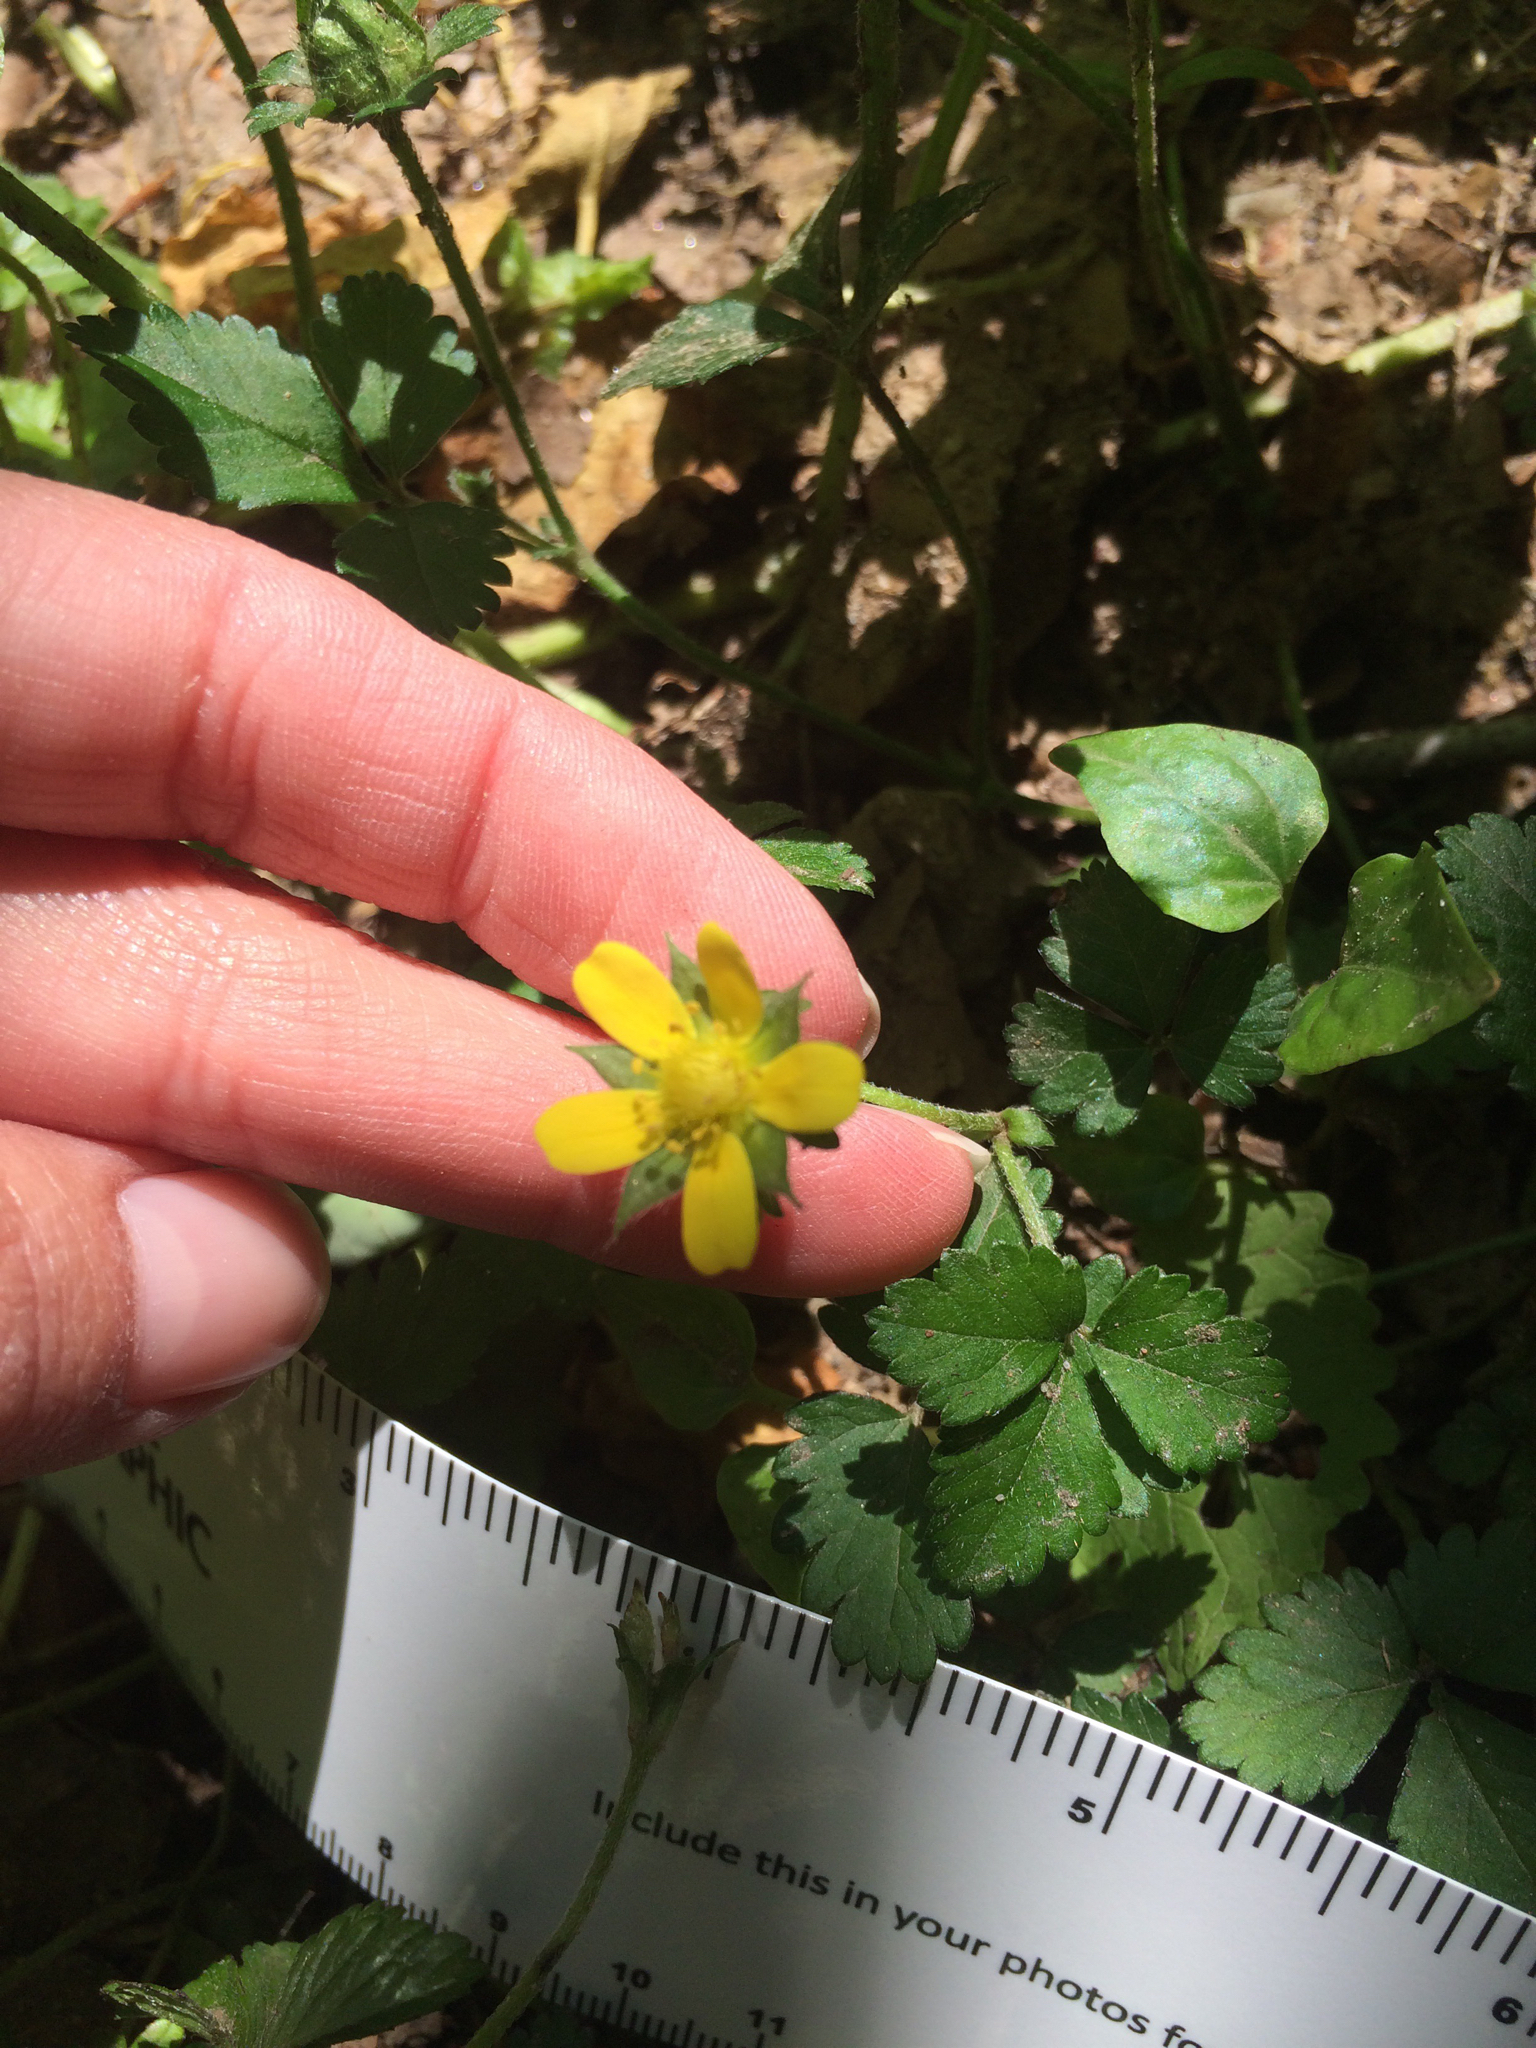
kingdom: Plantae
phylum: Tracheophyta
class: Magnoliopsida
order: Rosales
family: Rosaceae
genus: Potentilla
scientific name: Potentilla indica
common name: Yellow-flowered strawberry
